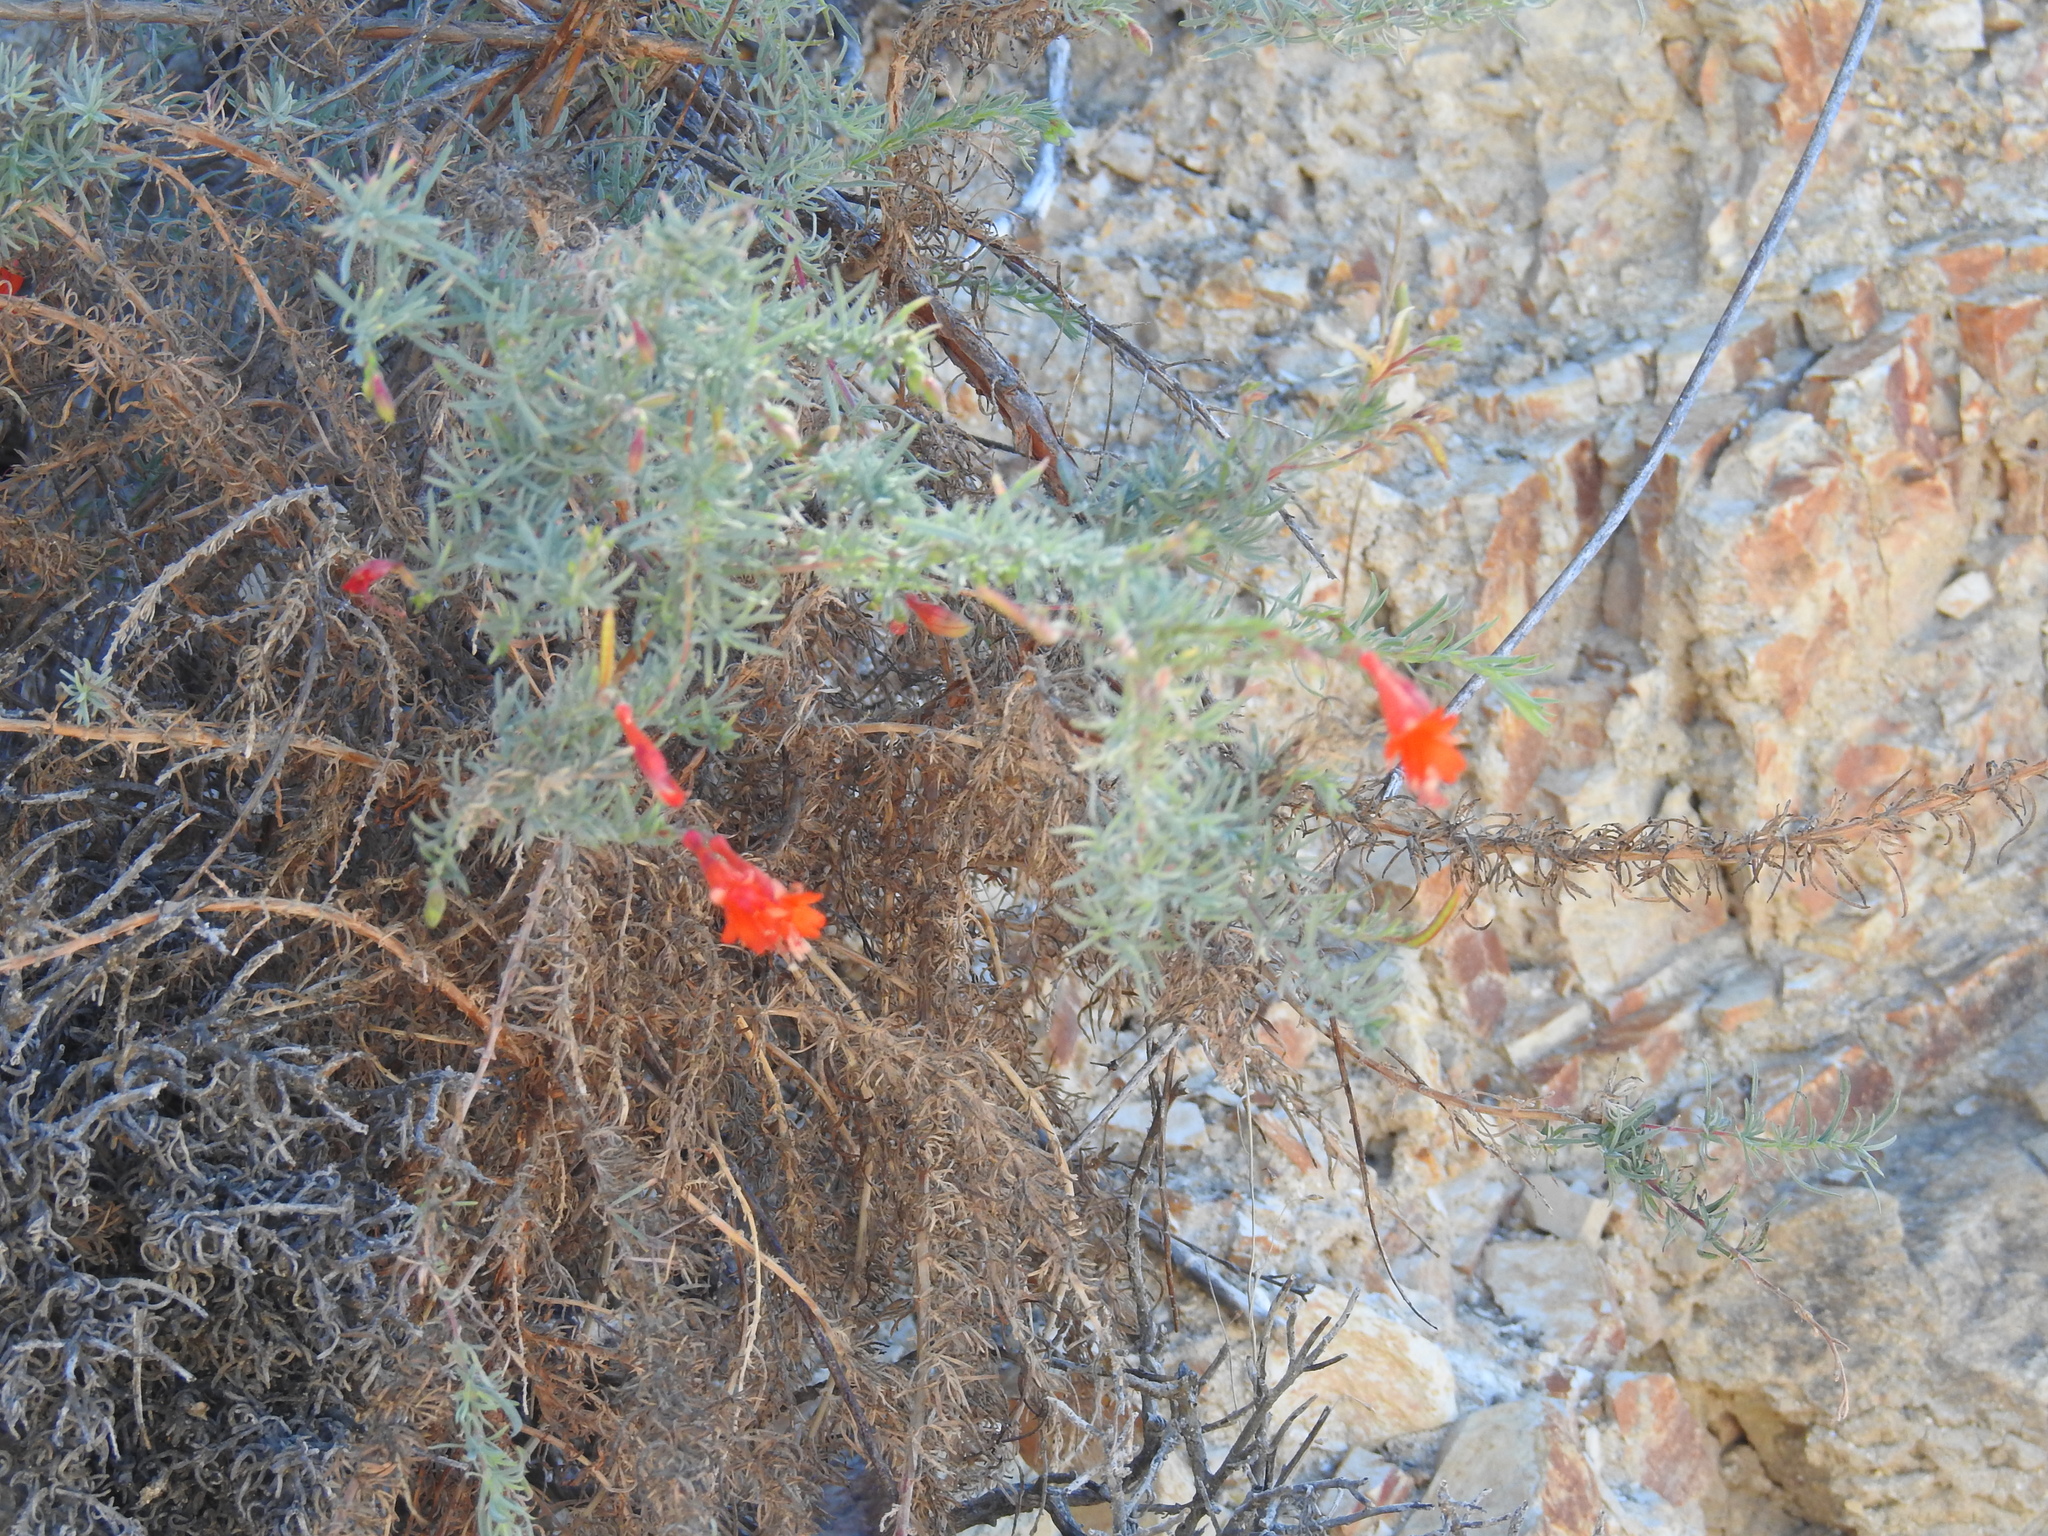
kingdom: Plantae
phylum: Tracheophyta
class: Magnoliopsida
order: Myrtales
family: Onagraceae
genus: Epilobium
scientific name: Epilobium canum
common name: California-fuchsia
